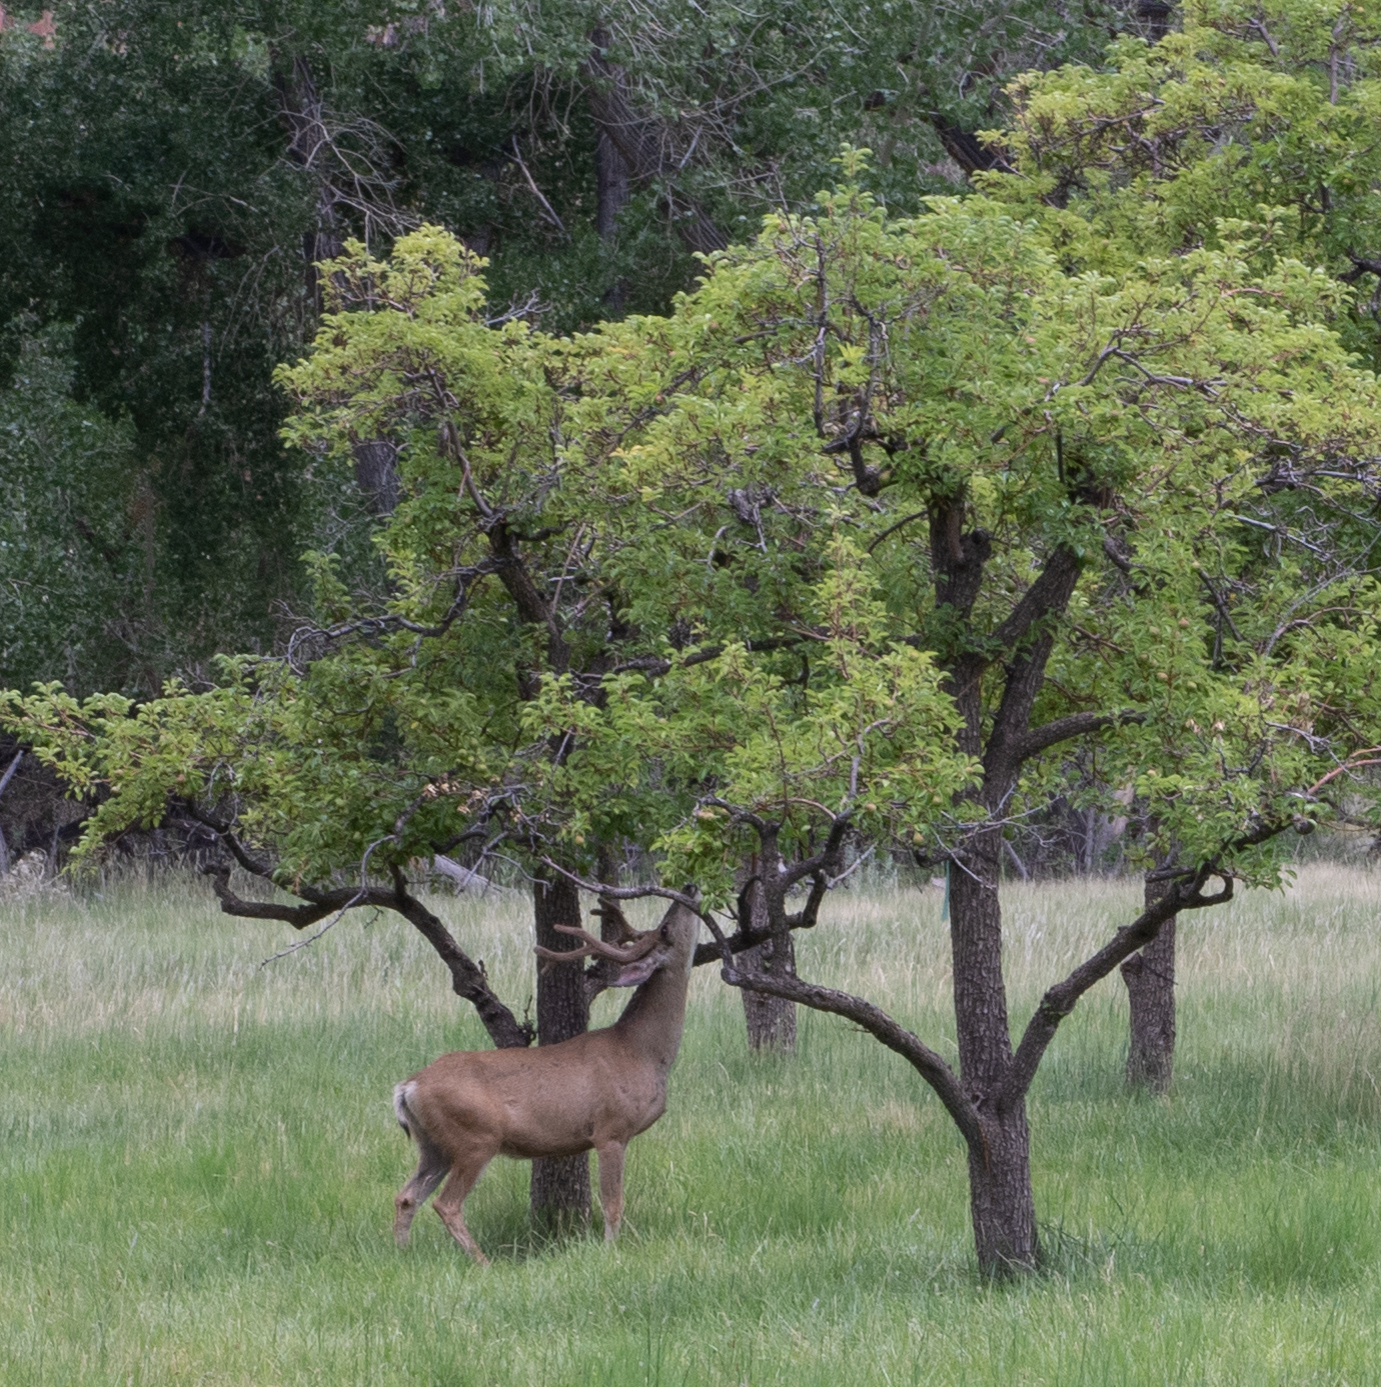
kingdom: Animalia
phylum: Chordata
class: Mammalia
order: Artiodactyla
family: Cervidae
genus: Odocoileus
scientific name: Odocoileus hemionus
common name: Mule deer
